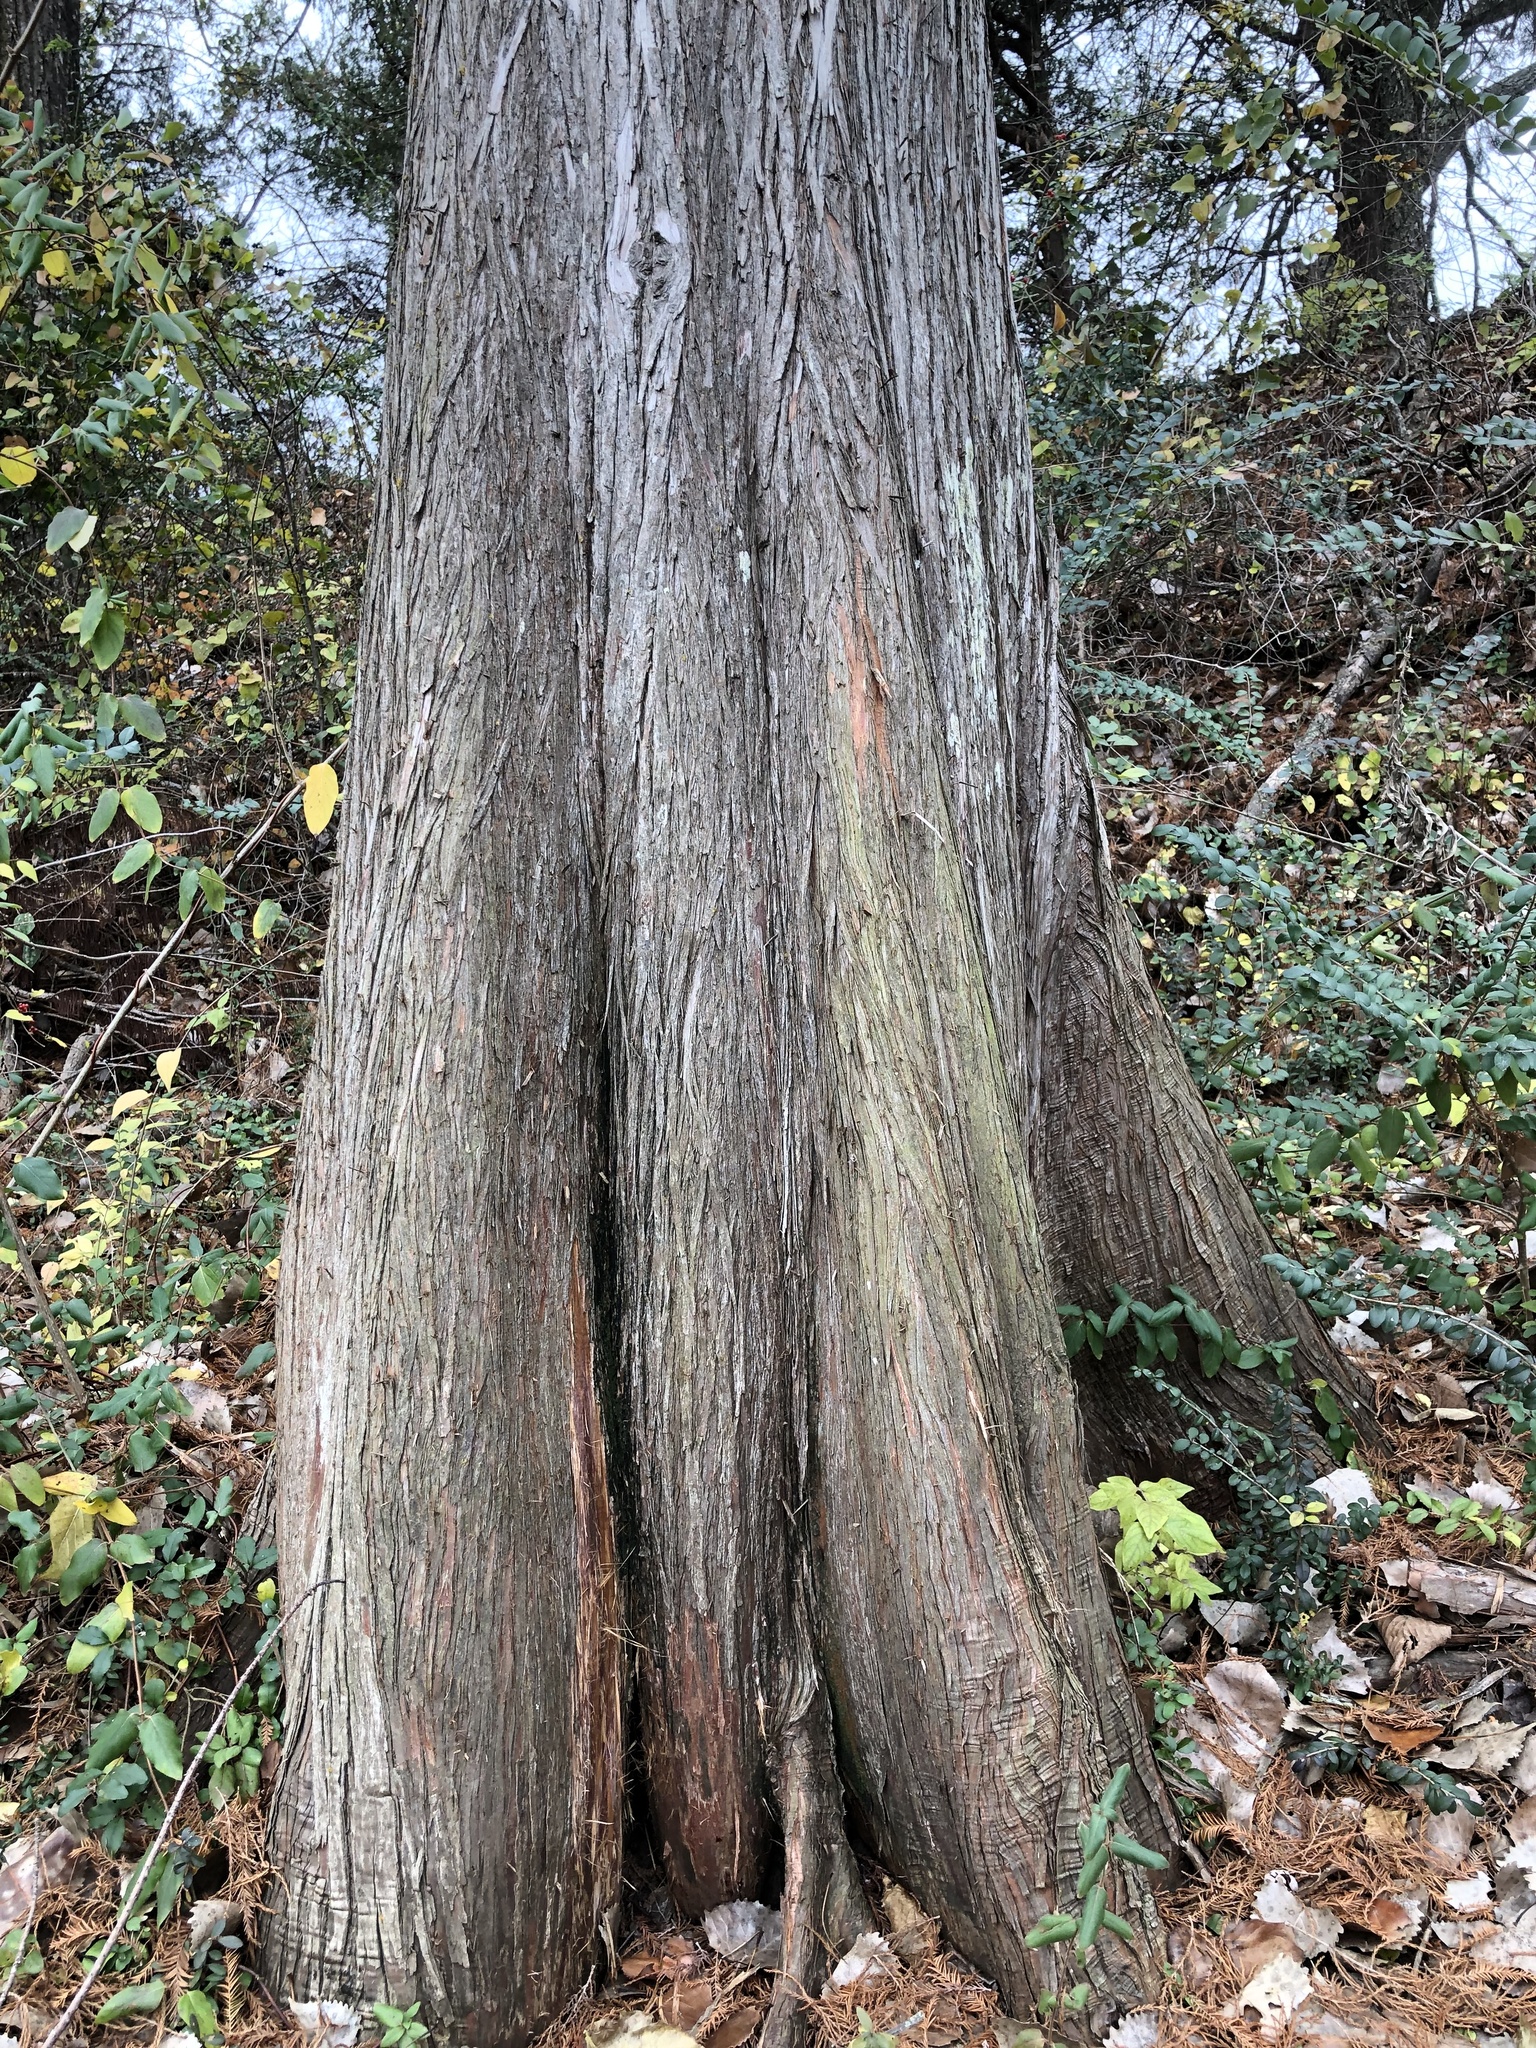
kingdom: Plantae
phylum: Tracheophyta
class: Pinopsida
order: Pinales
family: Cupressaceae
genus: Taxodium
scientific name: Taxodium distichum
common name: Bald cypress
